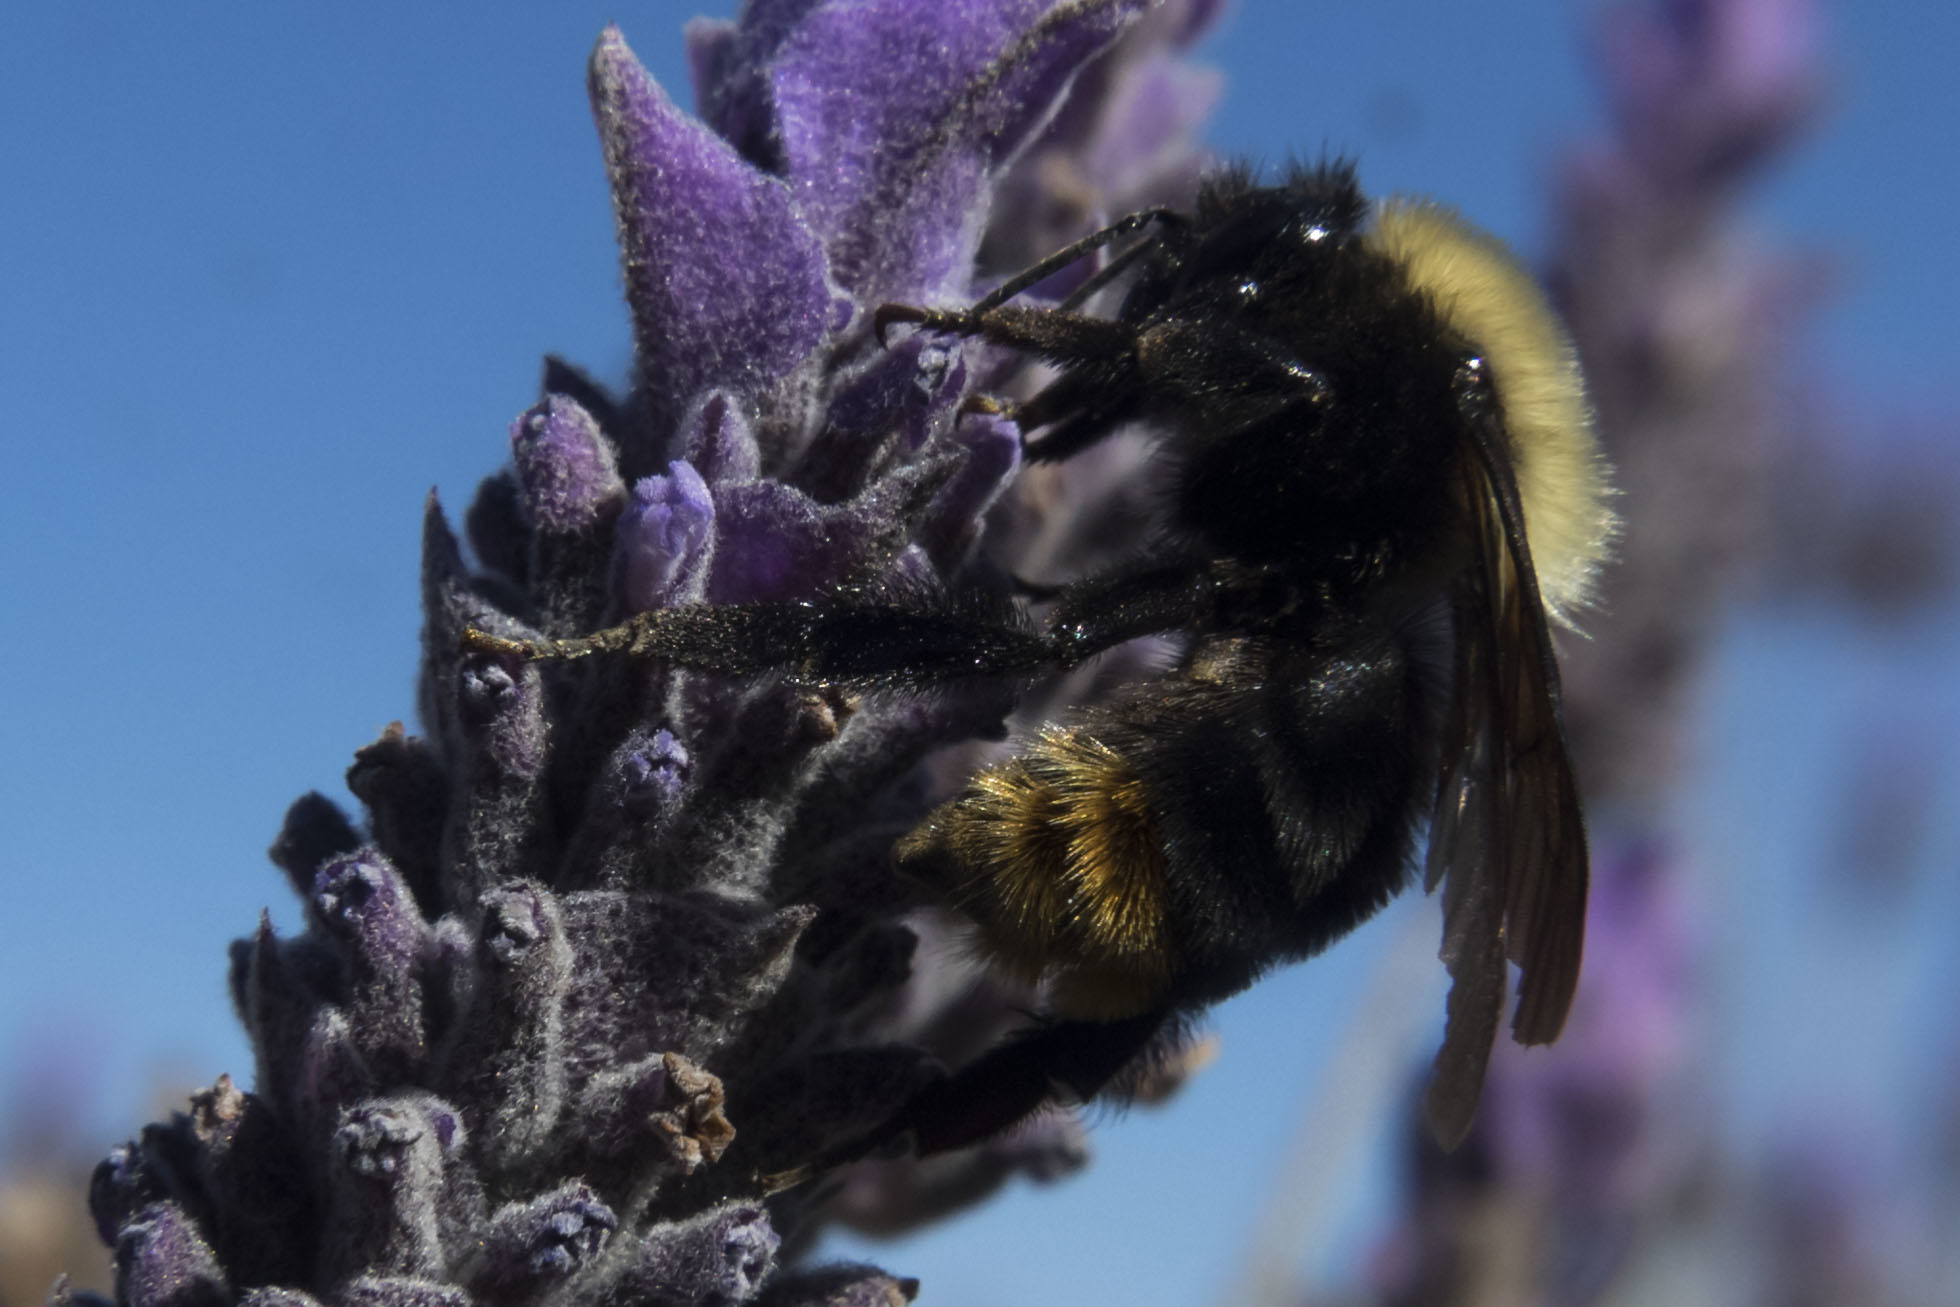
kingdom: Animalia
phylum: Arthropoda
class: Insecta
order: Hymenoptera
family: Apidae
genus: Bombus
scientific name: Bombus bellicosus
